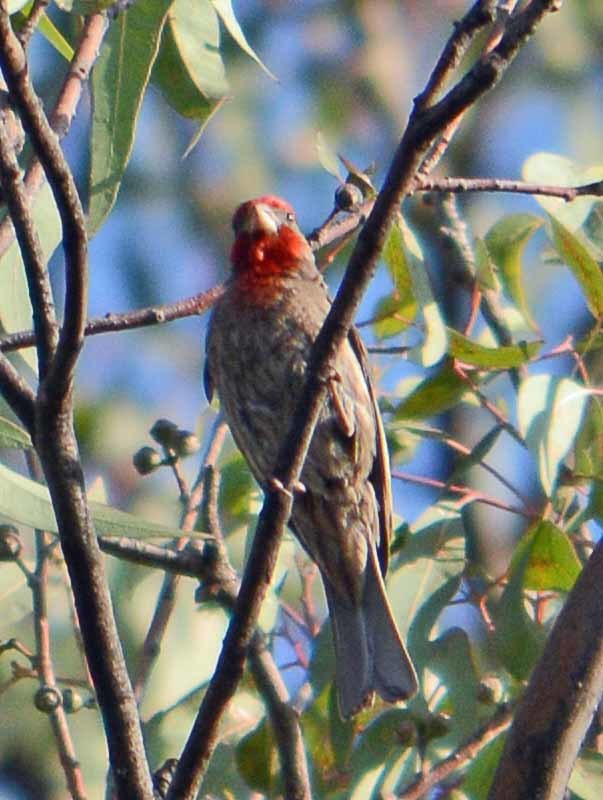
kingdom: Animalia
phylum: Chordata
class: Aves
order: Passeriformes
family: Fringillidae
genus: Haemorhous
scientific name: Haemorhous mexicanus
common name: House finch
